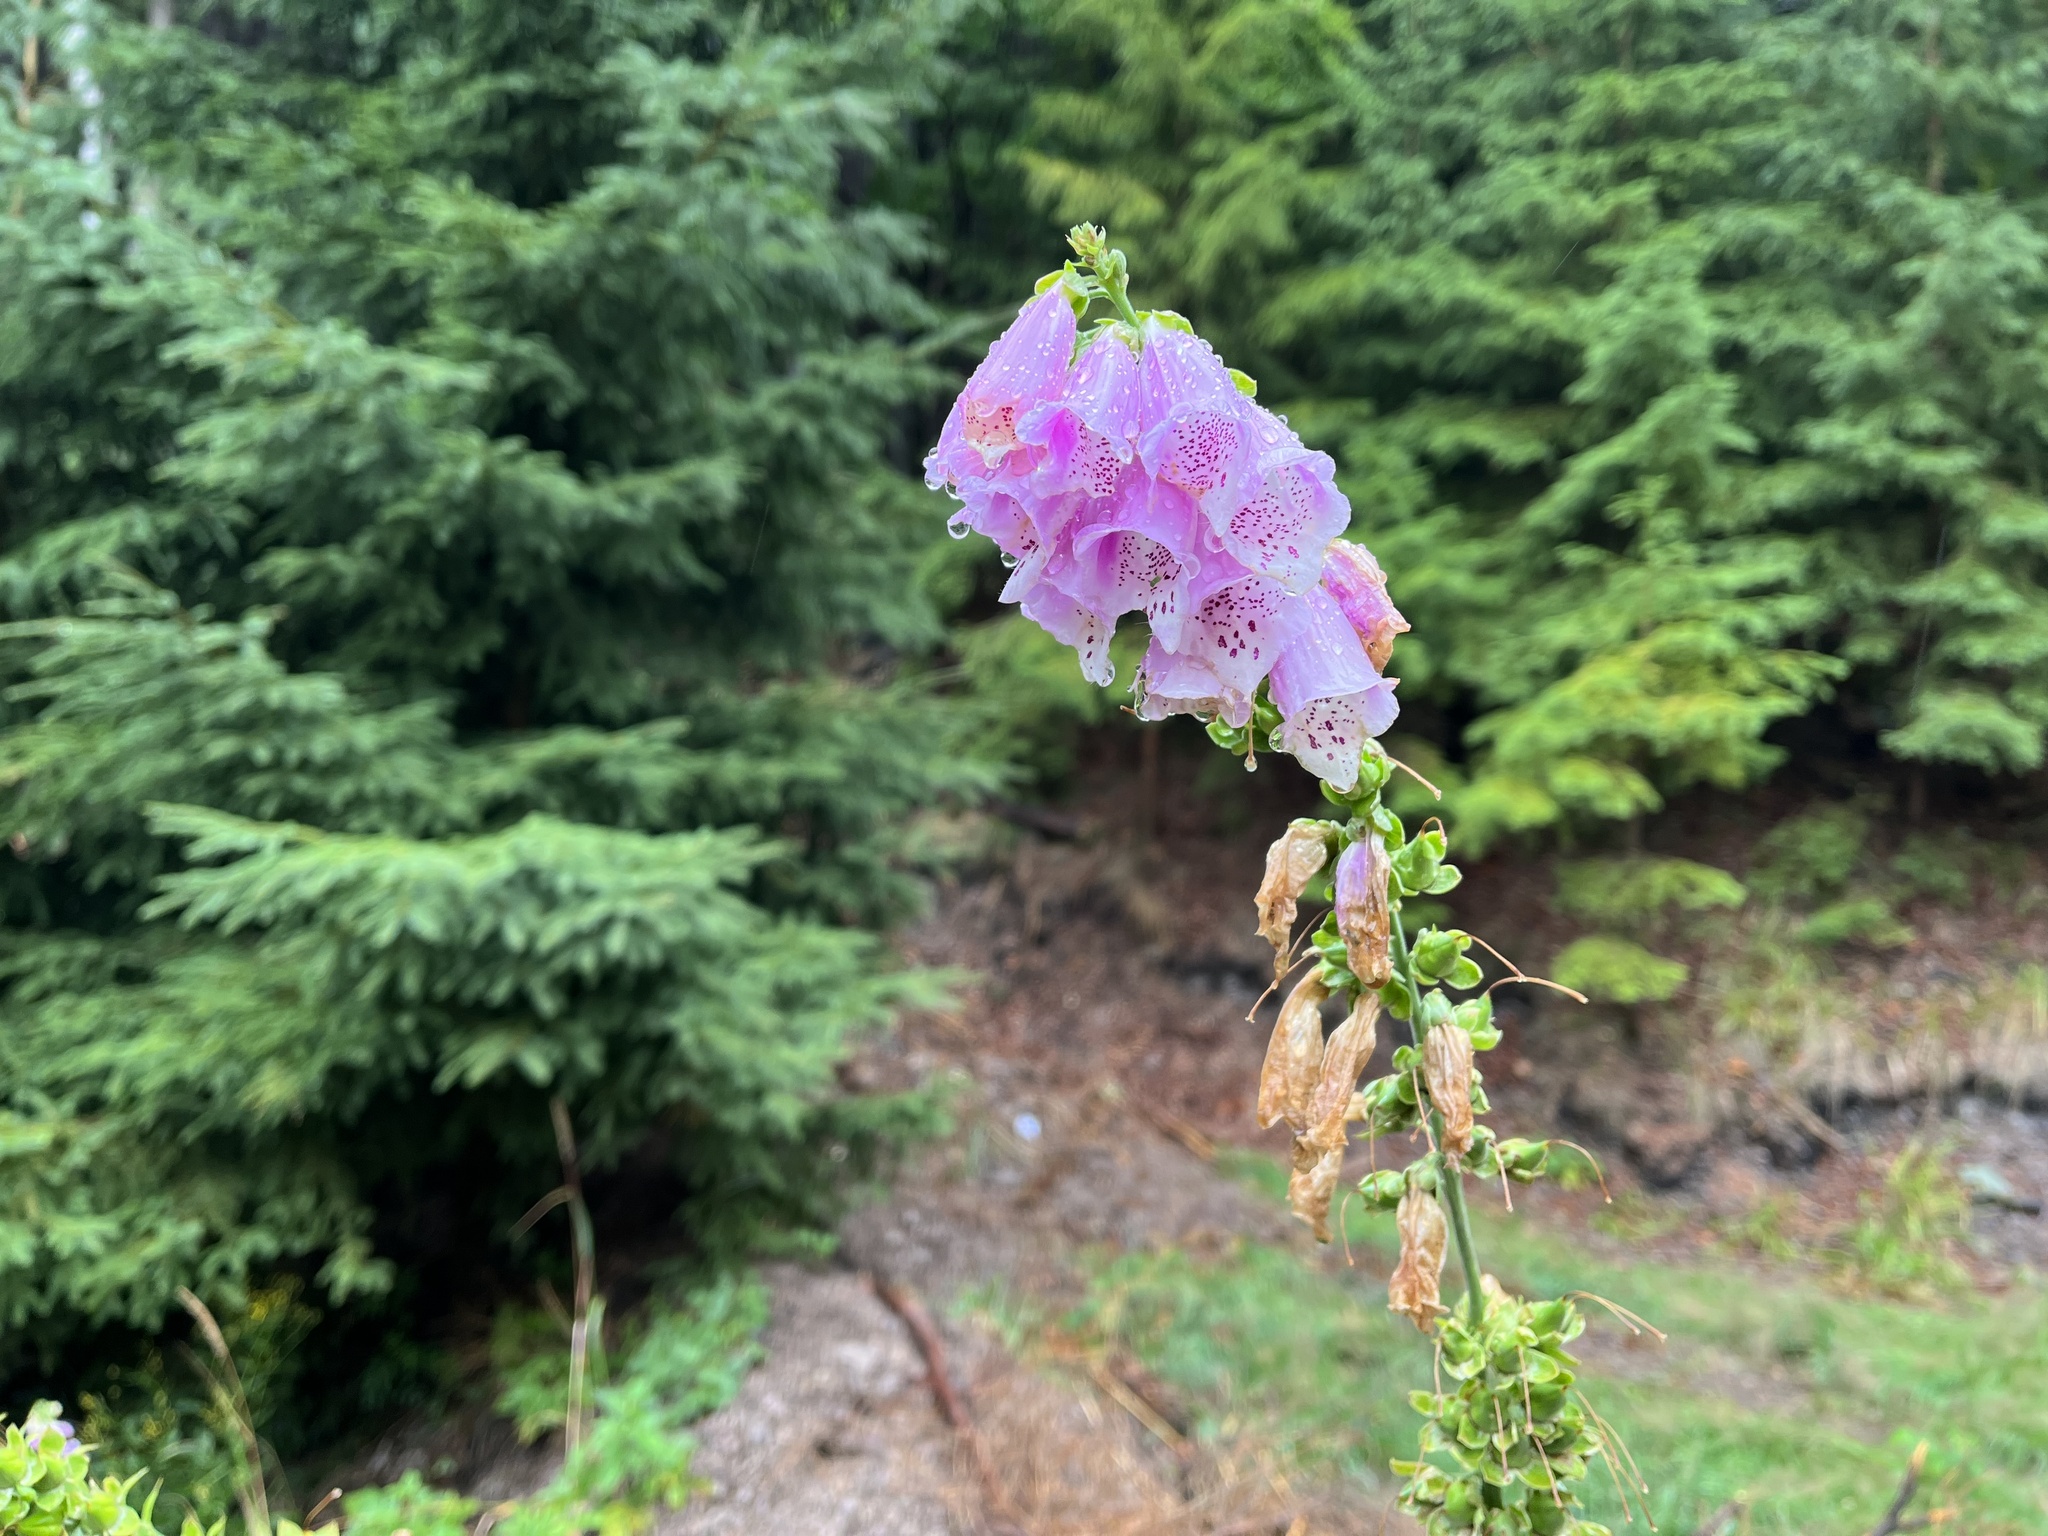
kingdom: Plantae
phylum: Tracheophyta
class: Magnoliopsida
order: Lamiales
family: Plantaginaceae
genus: Digitalis
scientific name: Digitalis purpurea
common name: Foxglove
